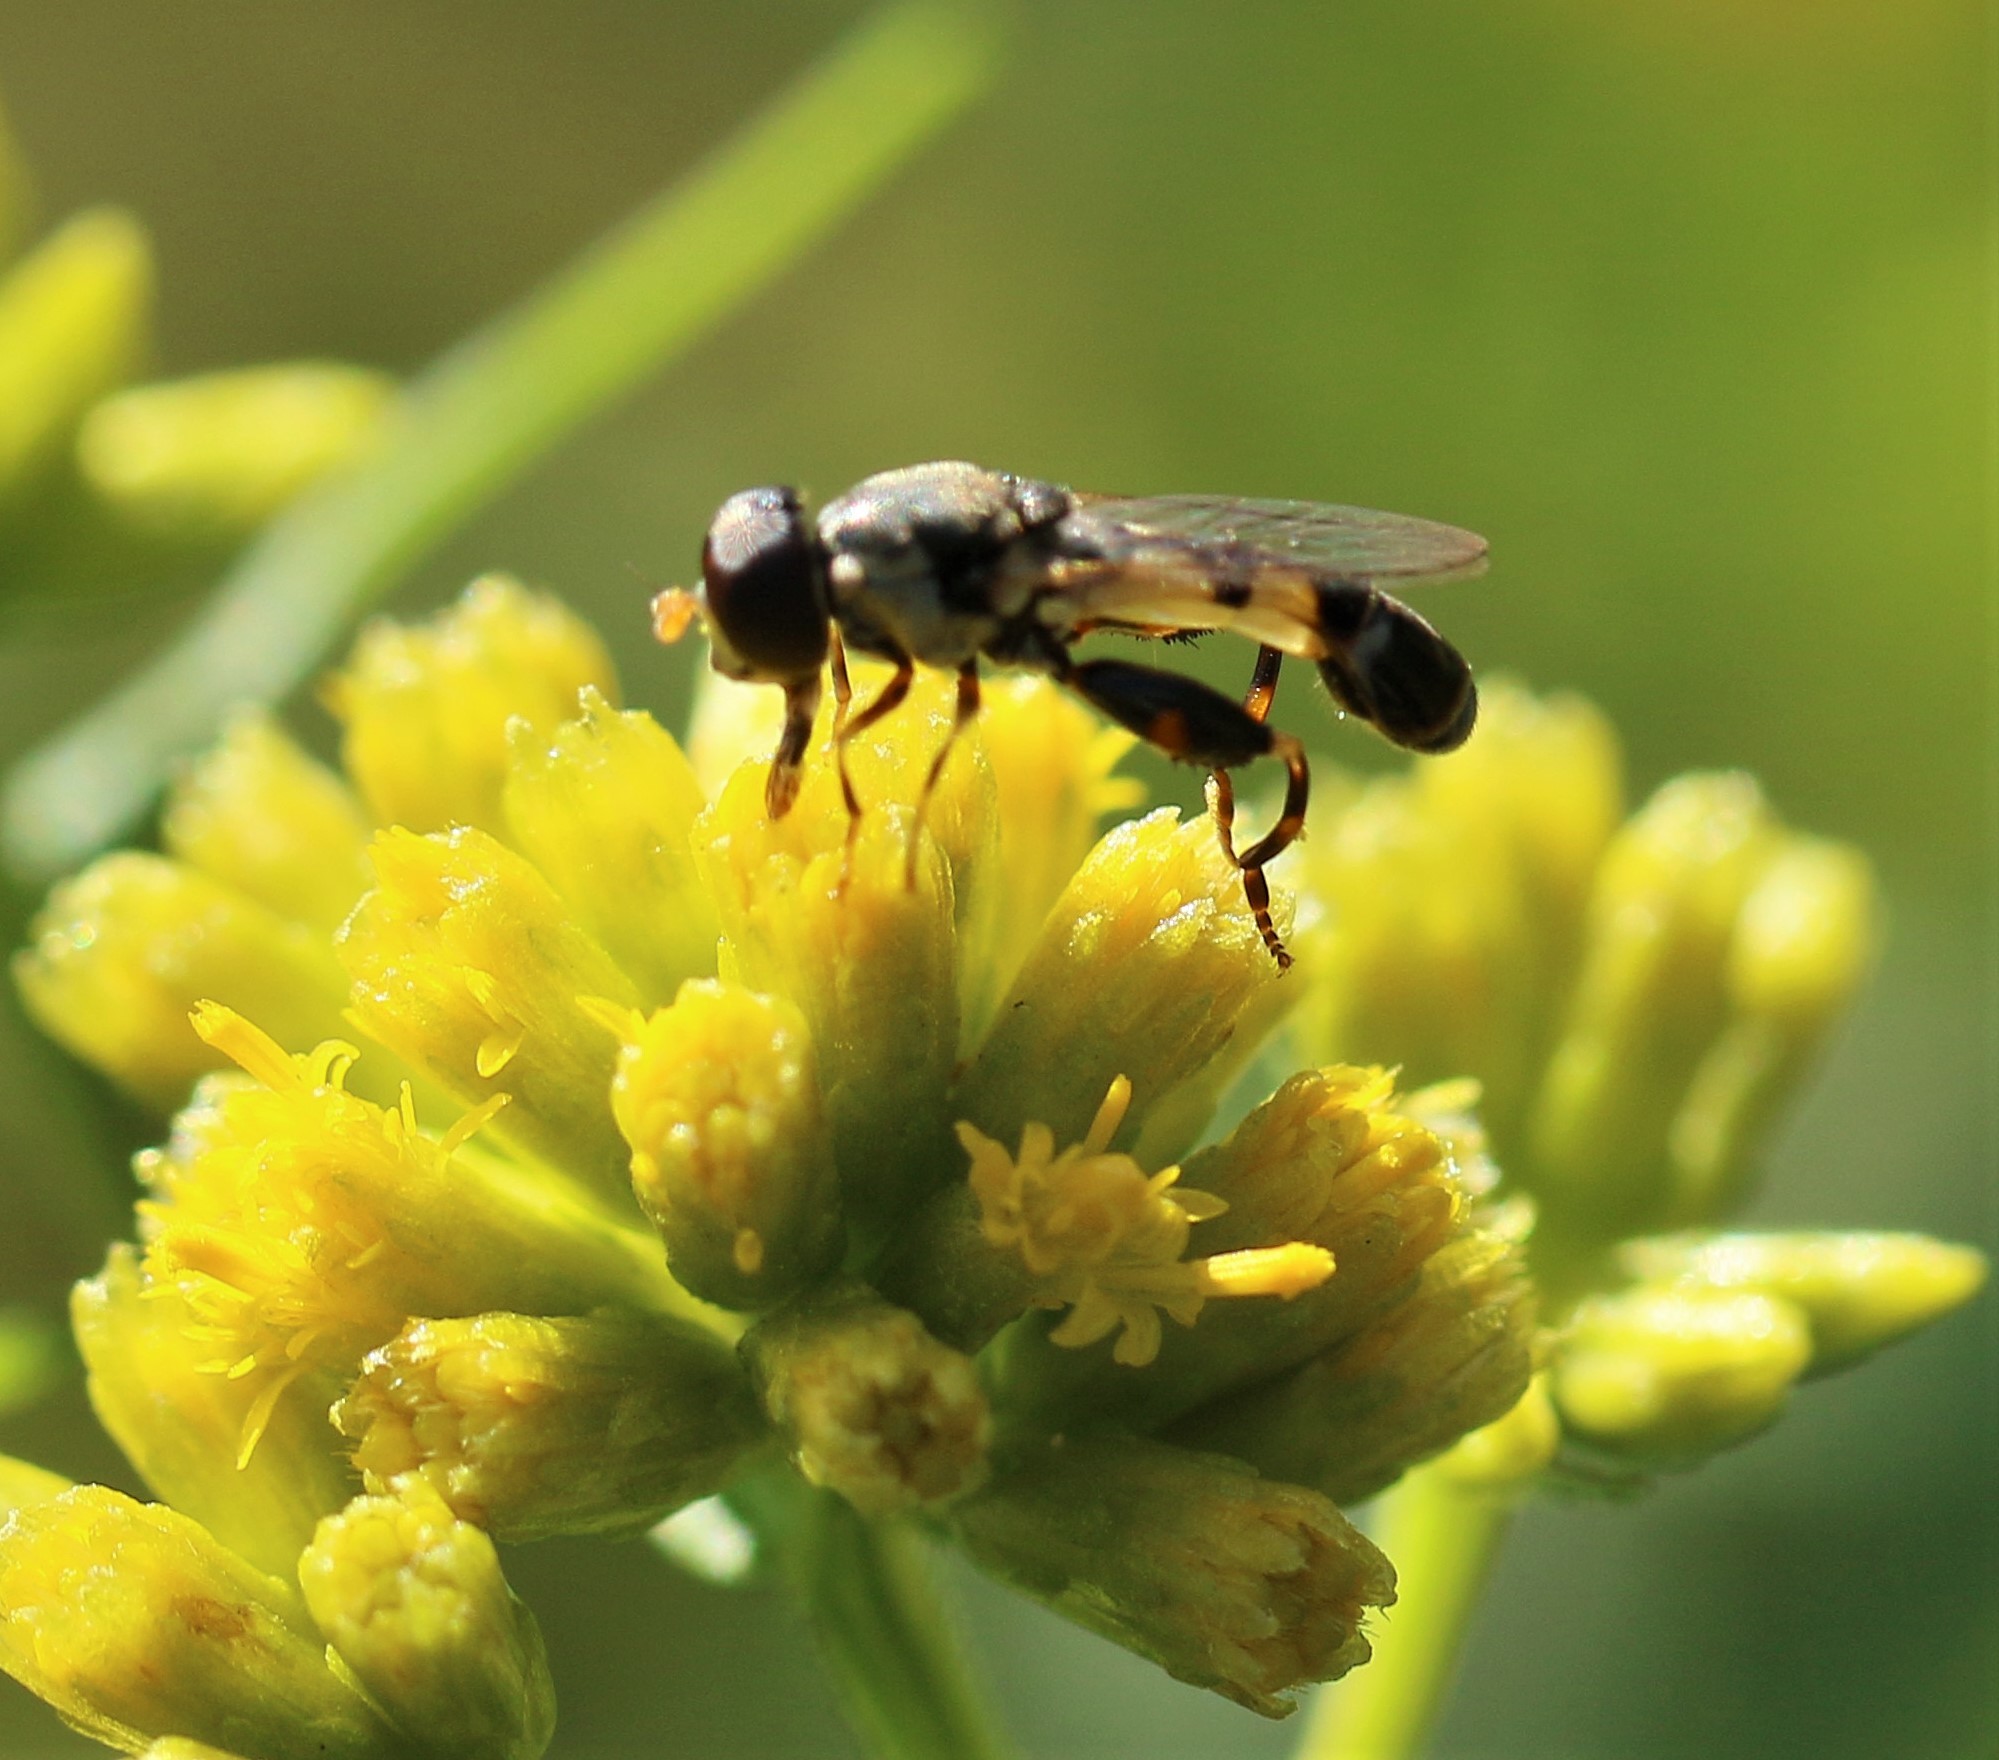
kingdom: Animalia
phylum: Arthropoda
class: Insecta
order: Diptera
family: Syrphidae
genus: Syritta
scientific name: Syritta pipiens
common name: Hover fly
